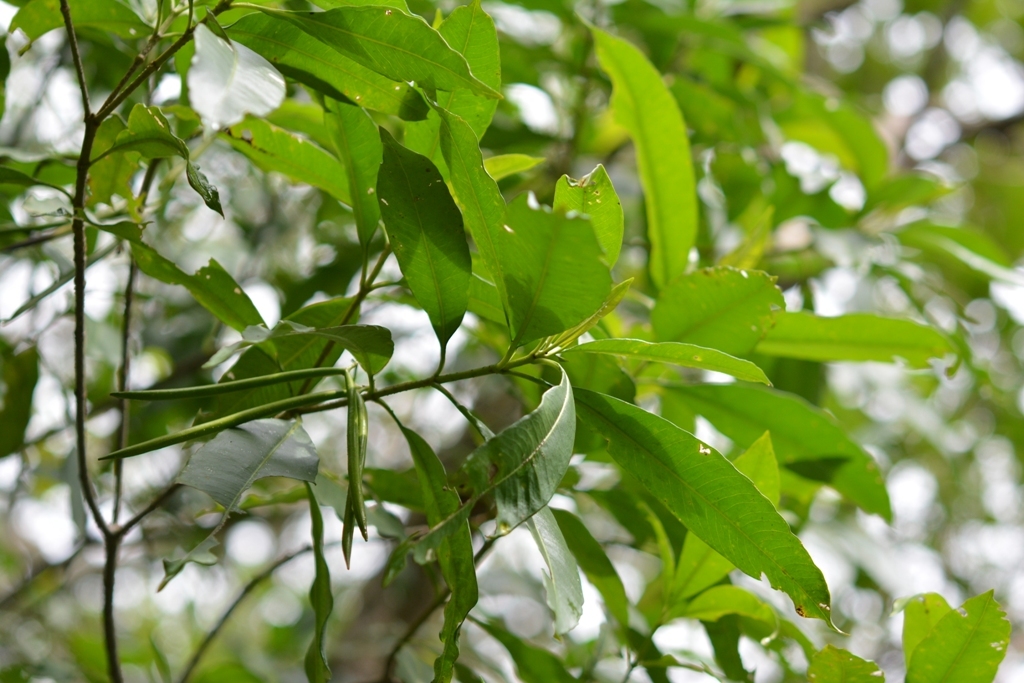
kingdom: Plantae
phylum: Tracheophyta
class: Magnoliopsida
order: Gentianales
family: Apocynaceae
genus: Tonduzia
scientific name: Tonduzia longifolia
